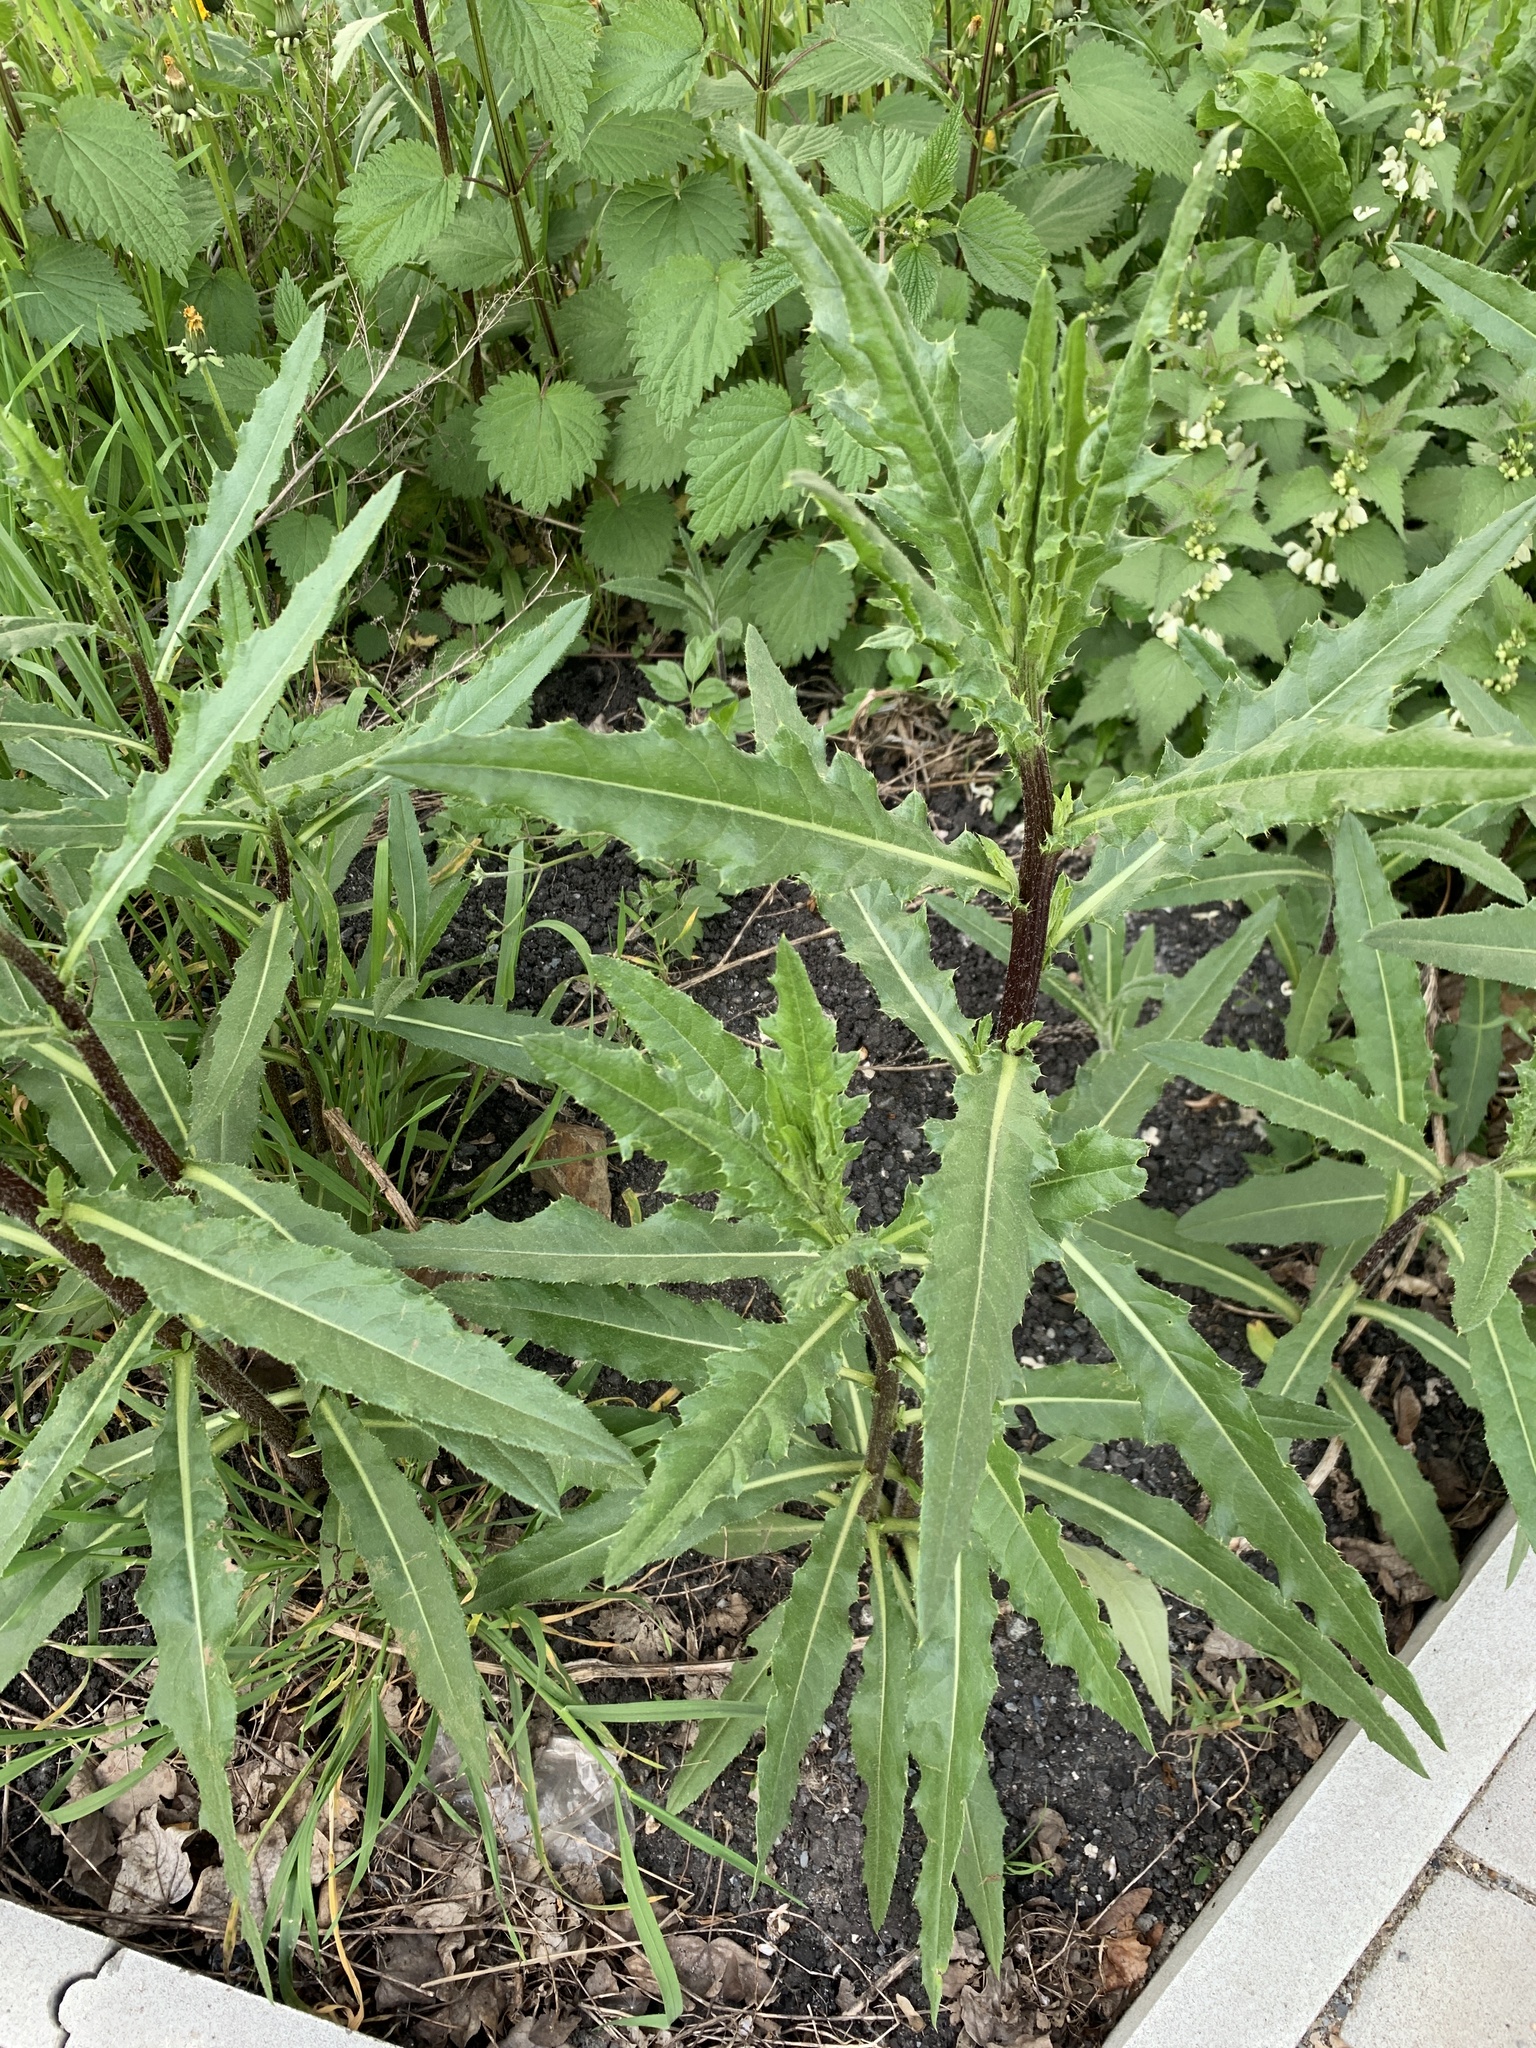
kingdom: Plantae
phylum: Tracheophyta
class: Magnoliopsida
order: Asterales
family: Asteraceae
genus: Cirsium
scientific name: Cirsium arvense
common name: Creeping thistle
